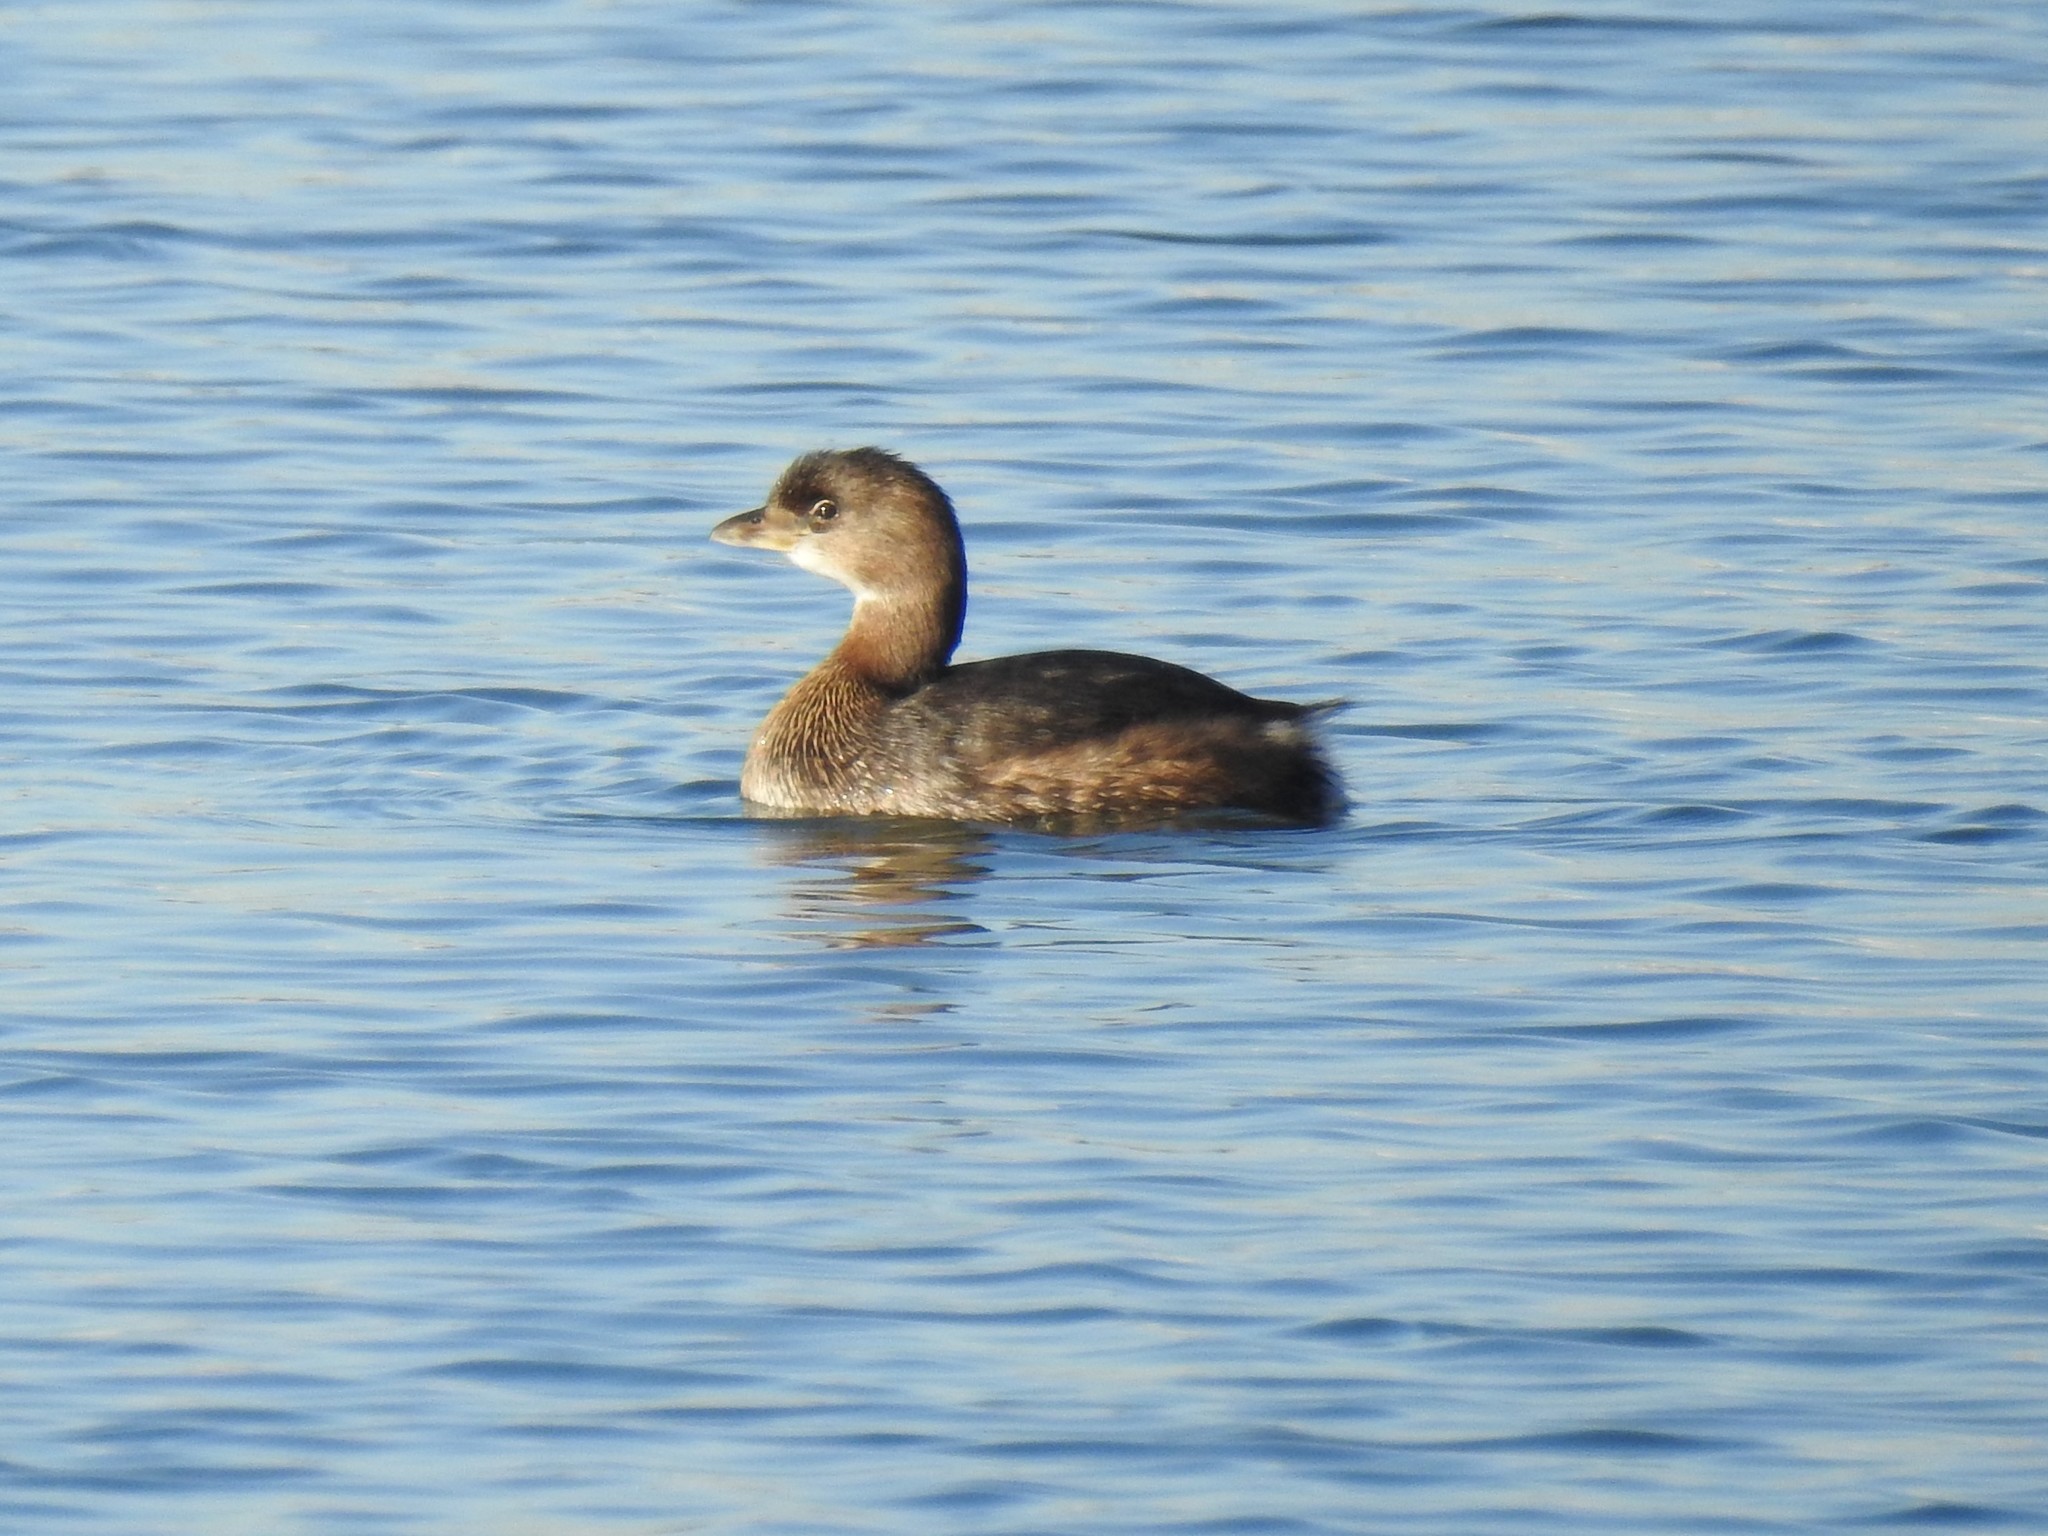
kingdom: Animalia
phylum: Chordata
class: Aves
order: Podicipediformes
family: Podicipedidae
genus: Podilymbus
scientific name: Podilymbus podiceps
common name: Pied-billed grebe
